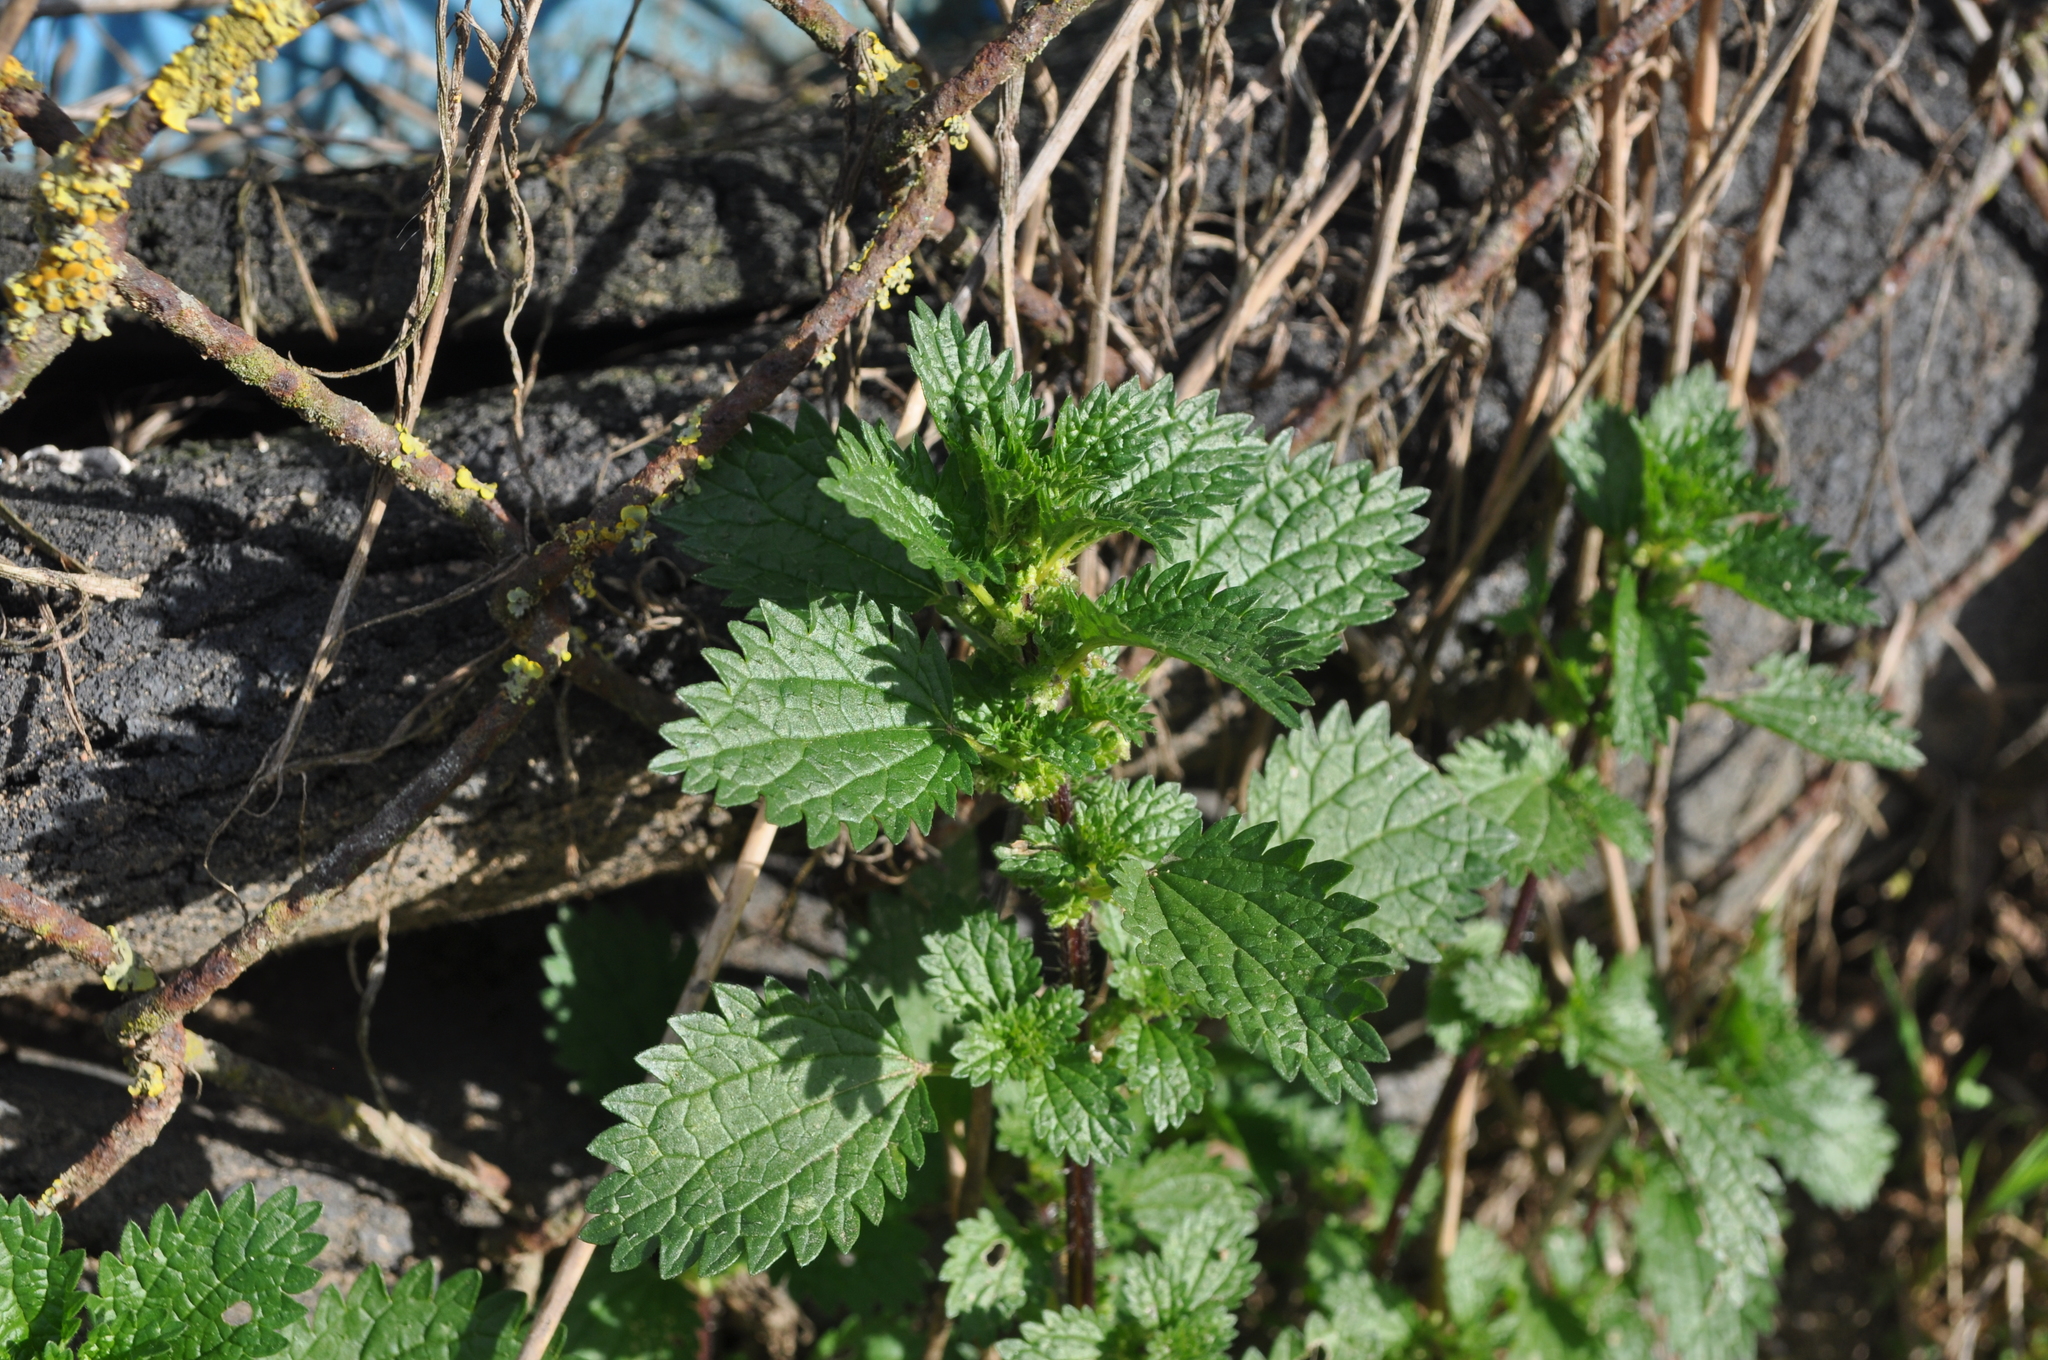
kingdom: Plantae
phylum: Tracheophyta
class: Magnoliopsida
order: Rosales
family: Urticaceae
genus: Urtica
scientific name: Urtica urens
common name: Dwarf nettle
